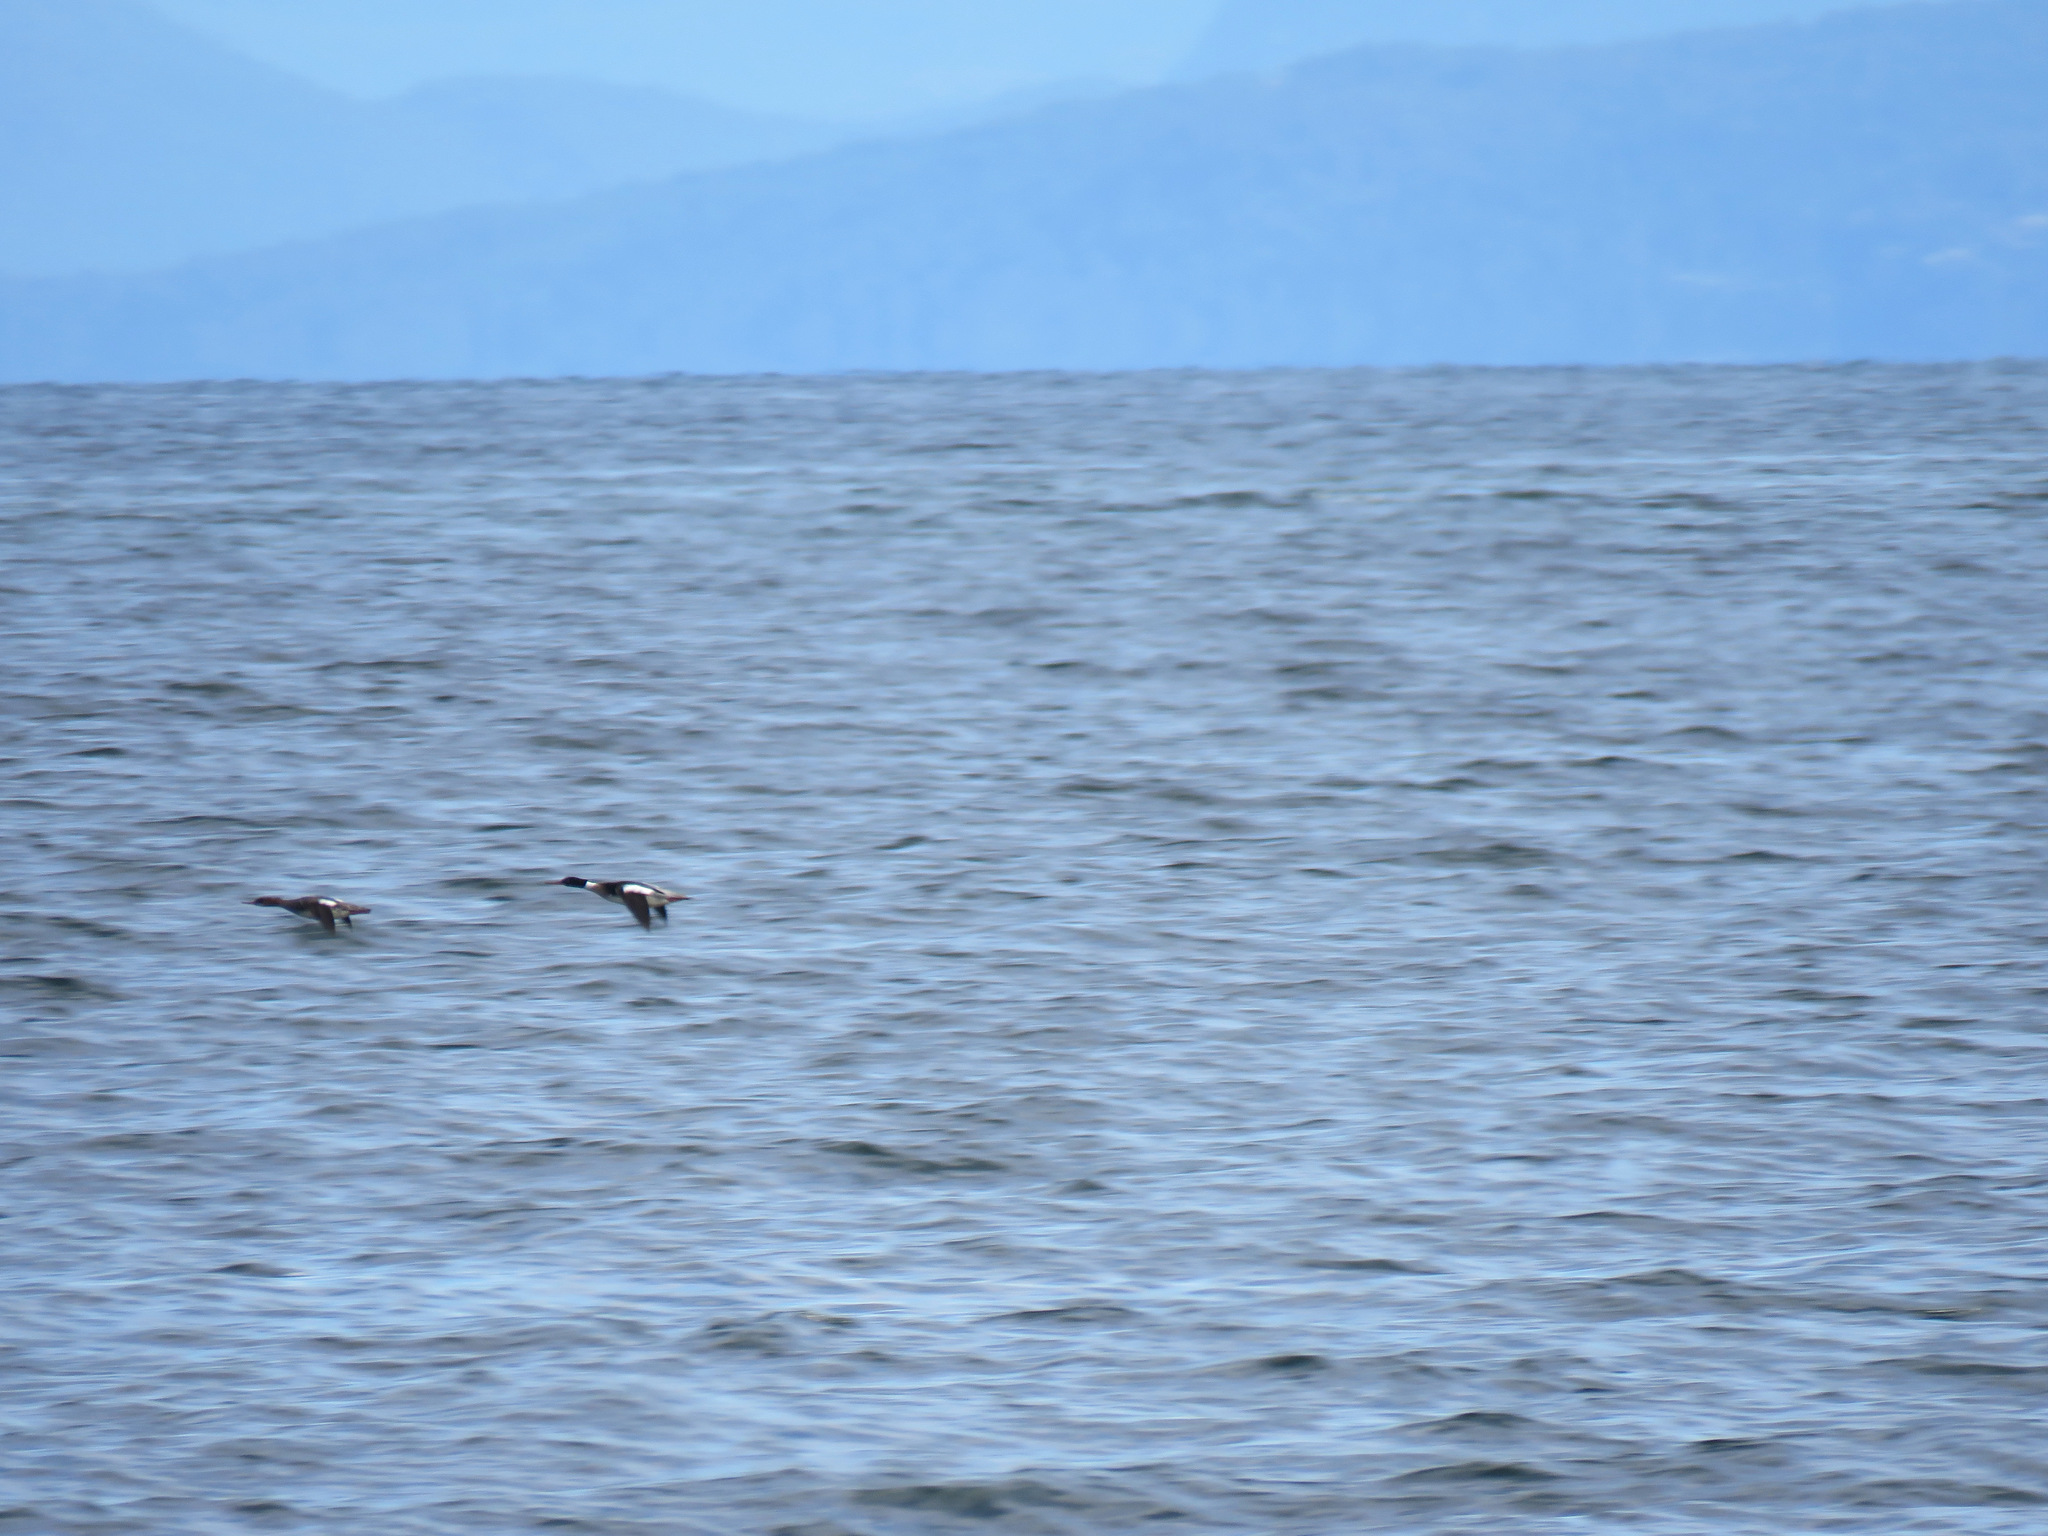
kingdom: Animalia
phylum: Chordata
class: Aves
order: Anseriformes
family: Anatidae
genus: Mergus
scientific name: Mergus serrator
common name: Red-breasted merganser
